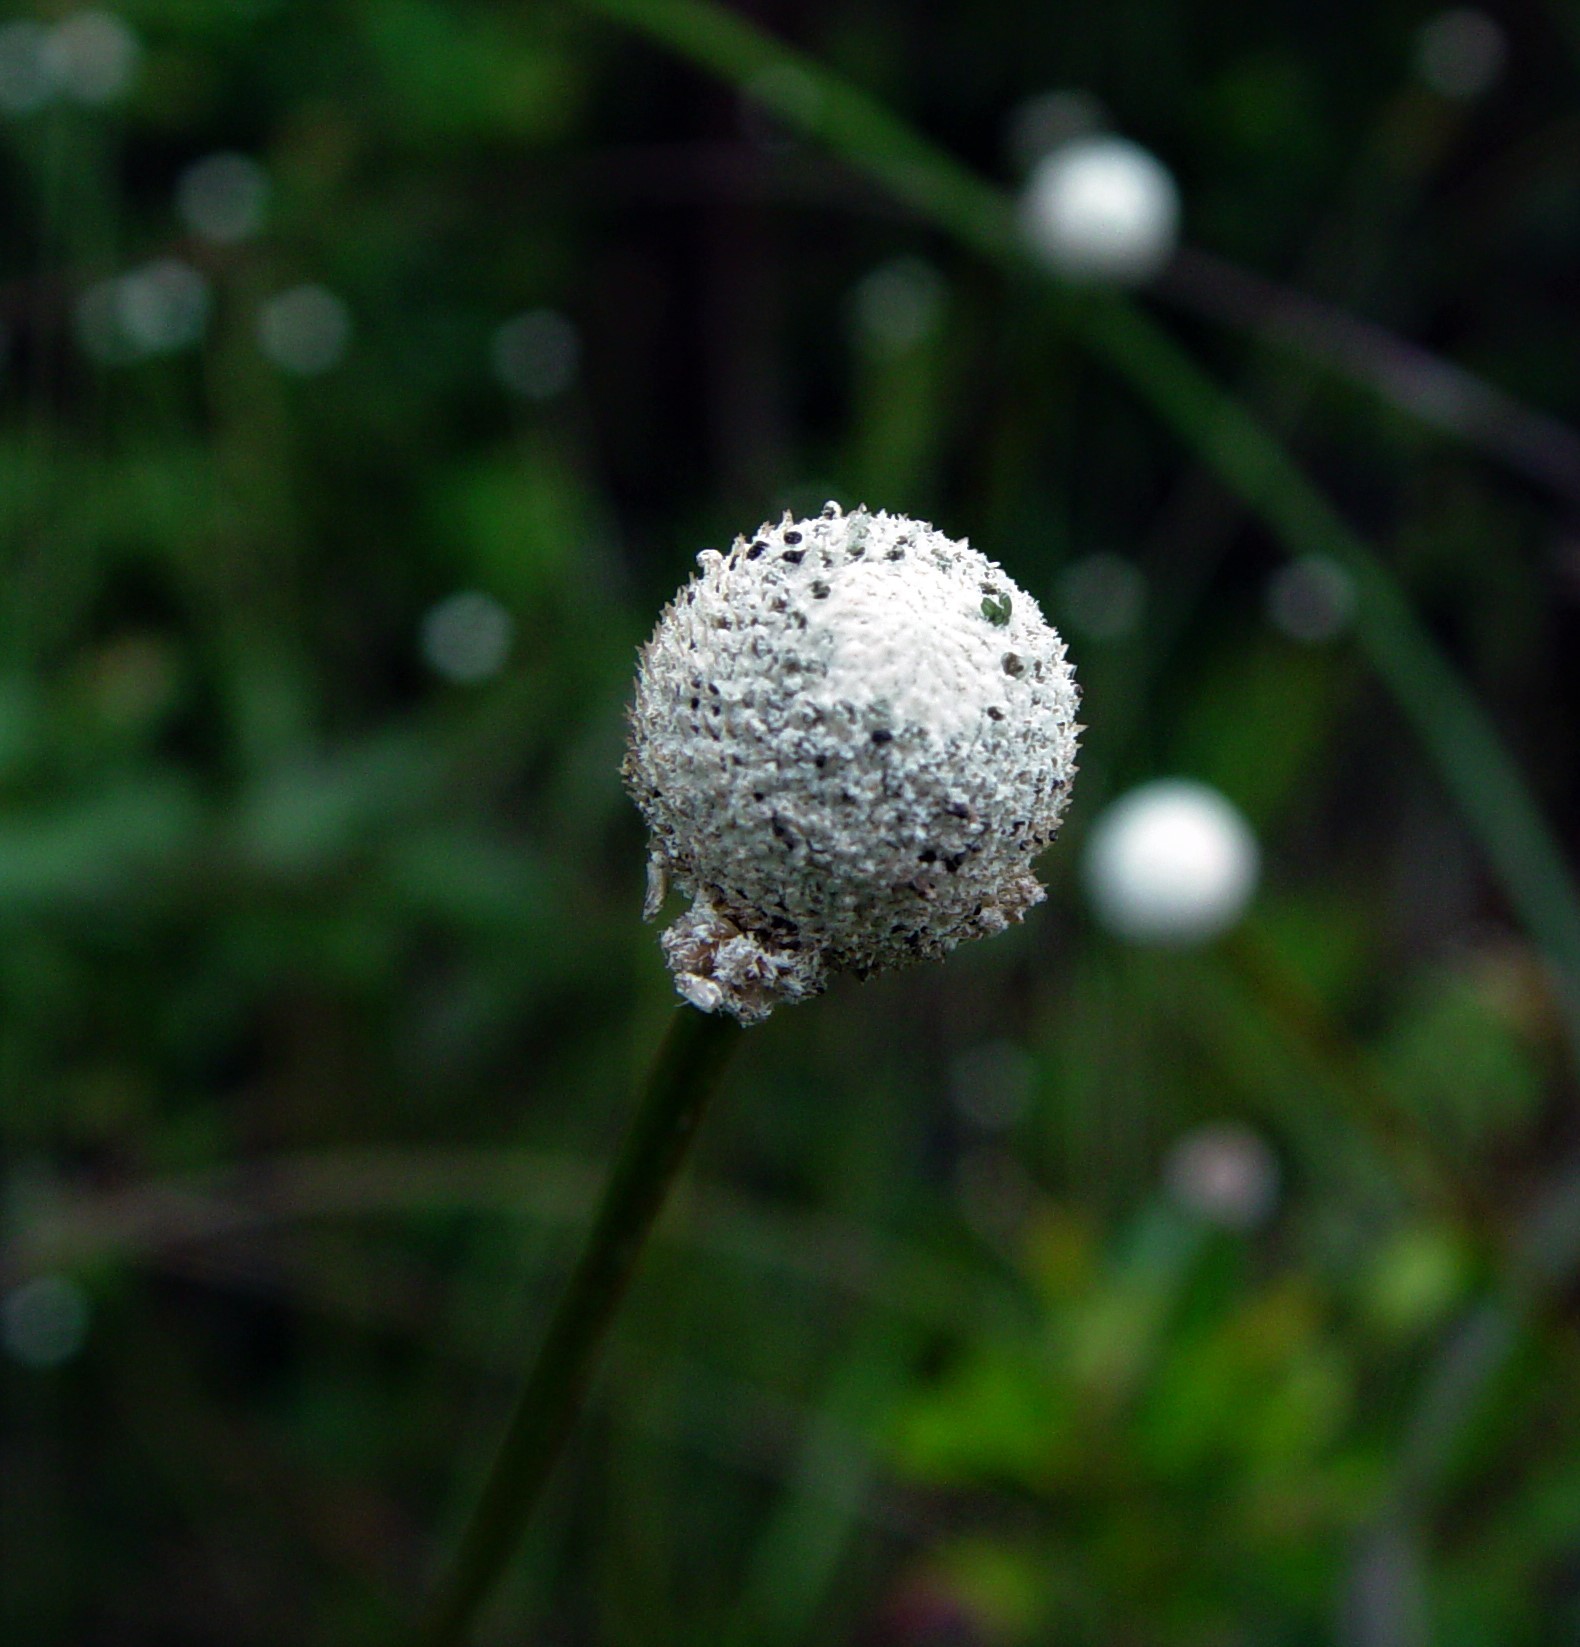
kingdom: Plantae
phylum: Tracheophyta
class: Liliopsida
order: Poales
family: Eriocaulaceae
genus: Eriocaulon
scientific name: Eriocaulon decangulare
